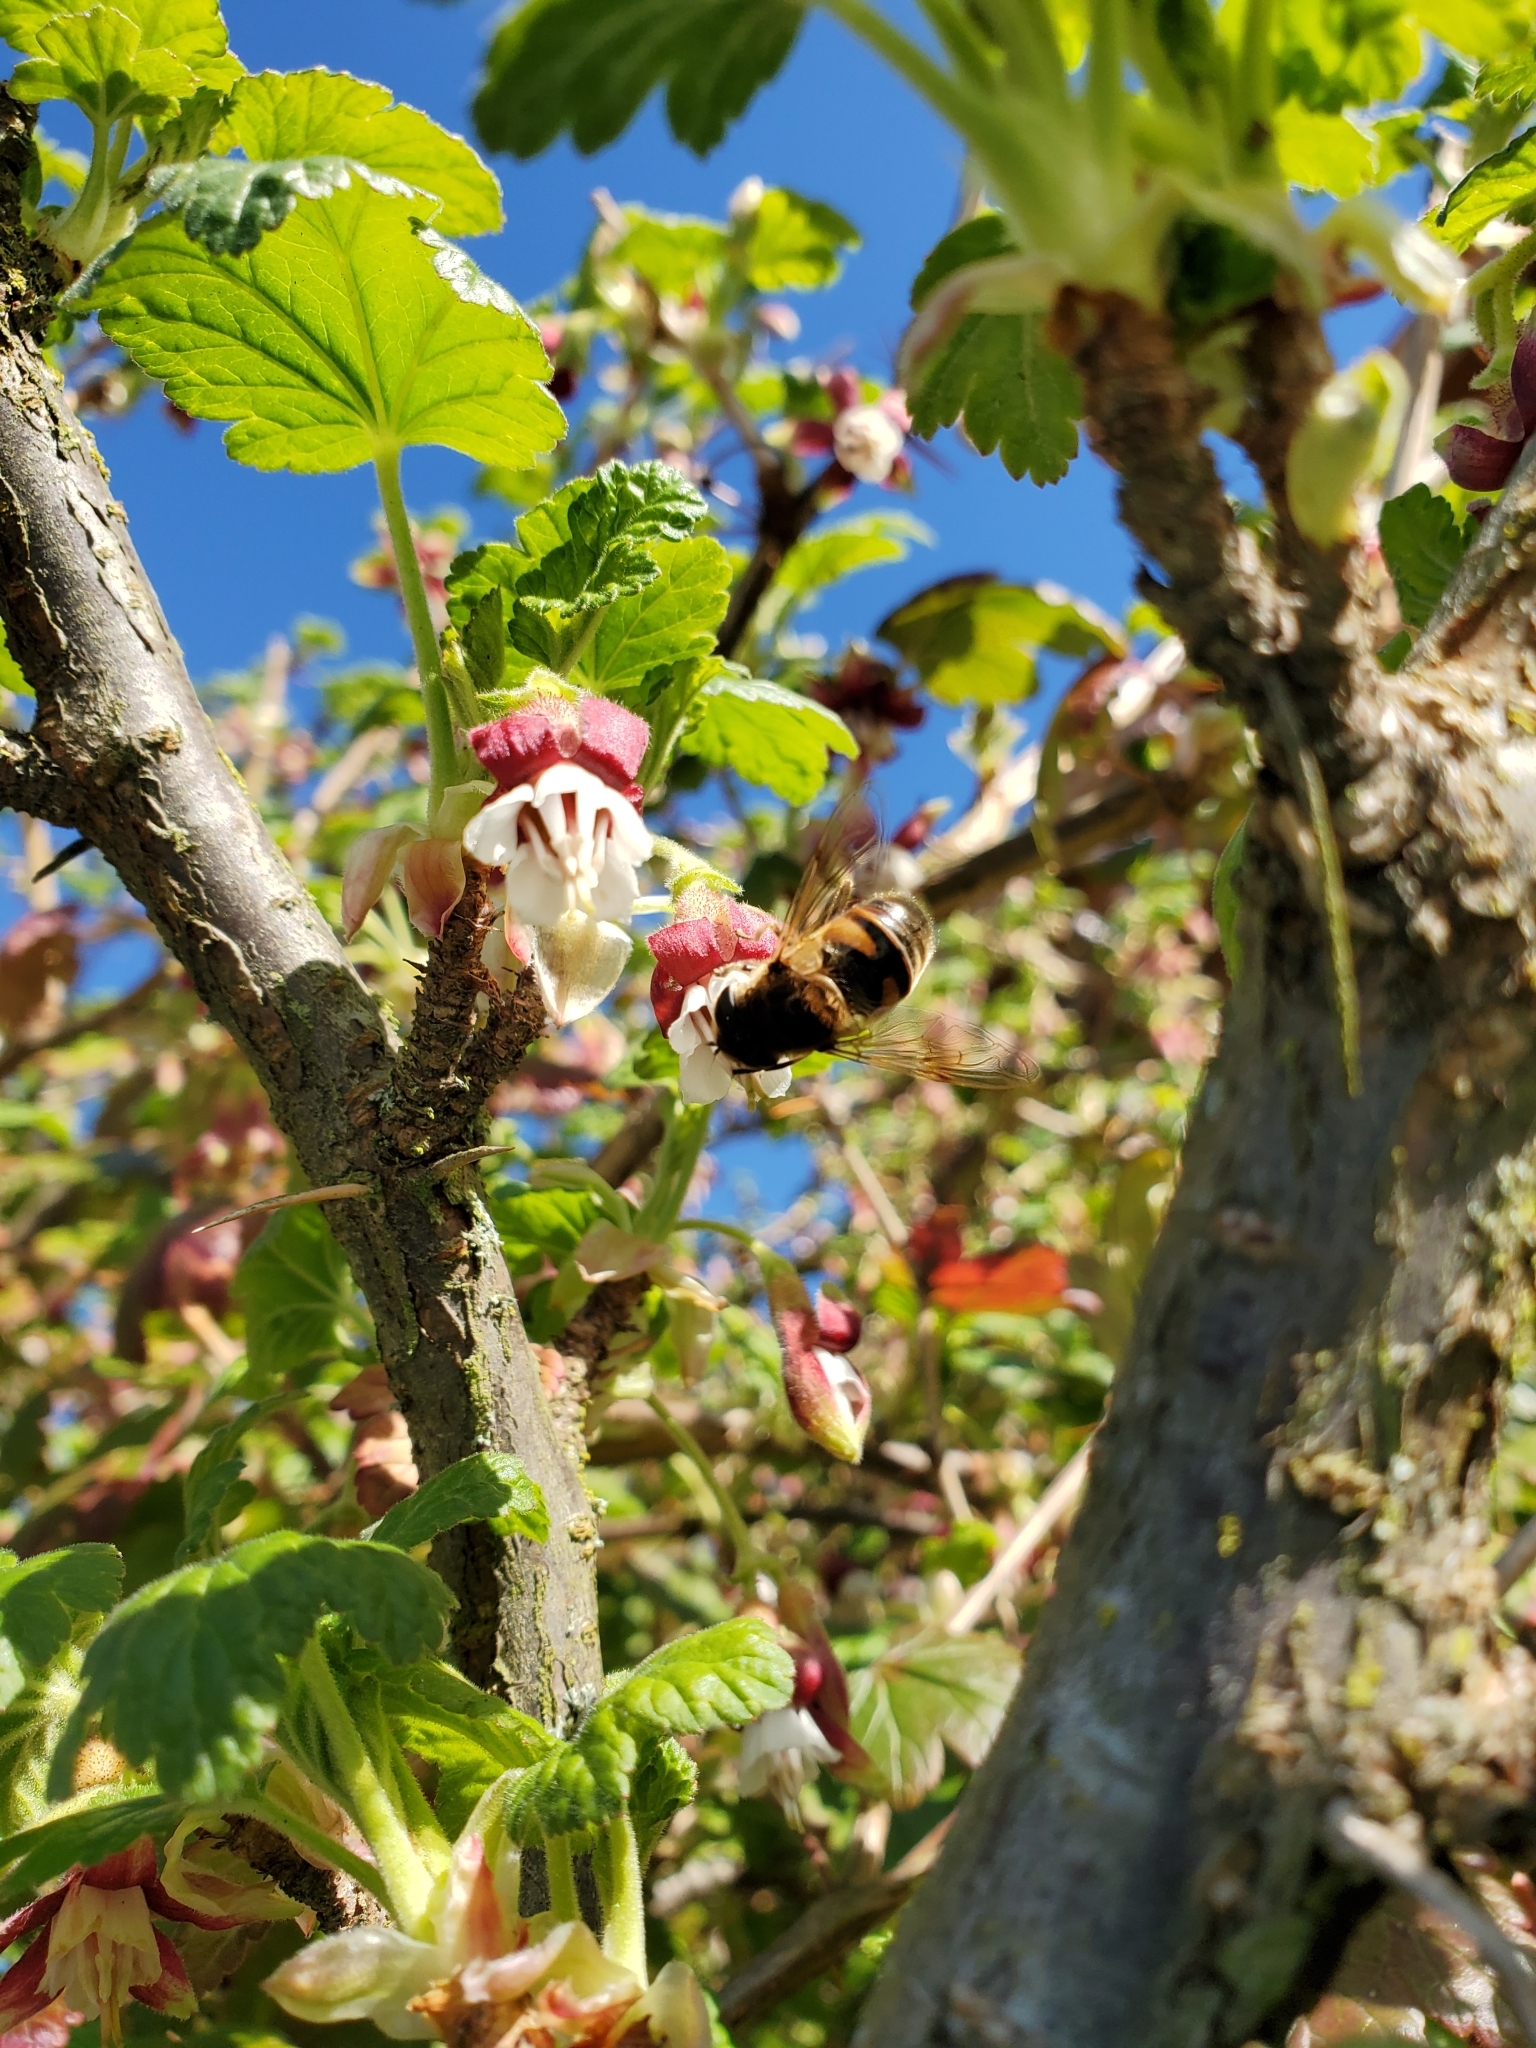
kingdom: Animalia
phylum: Arthropoda
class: Insecta
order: Diptera
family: Syrphidae
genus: Eristalis
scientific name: Eristalis tenax
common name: Drone fly
